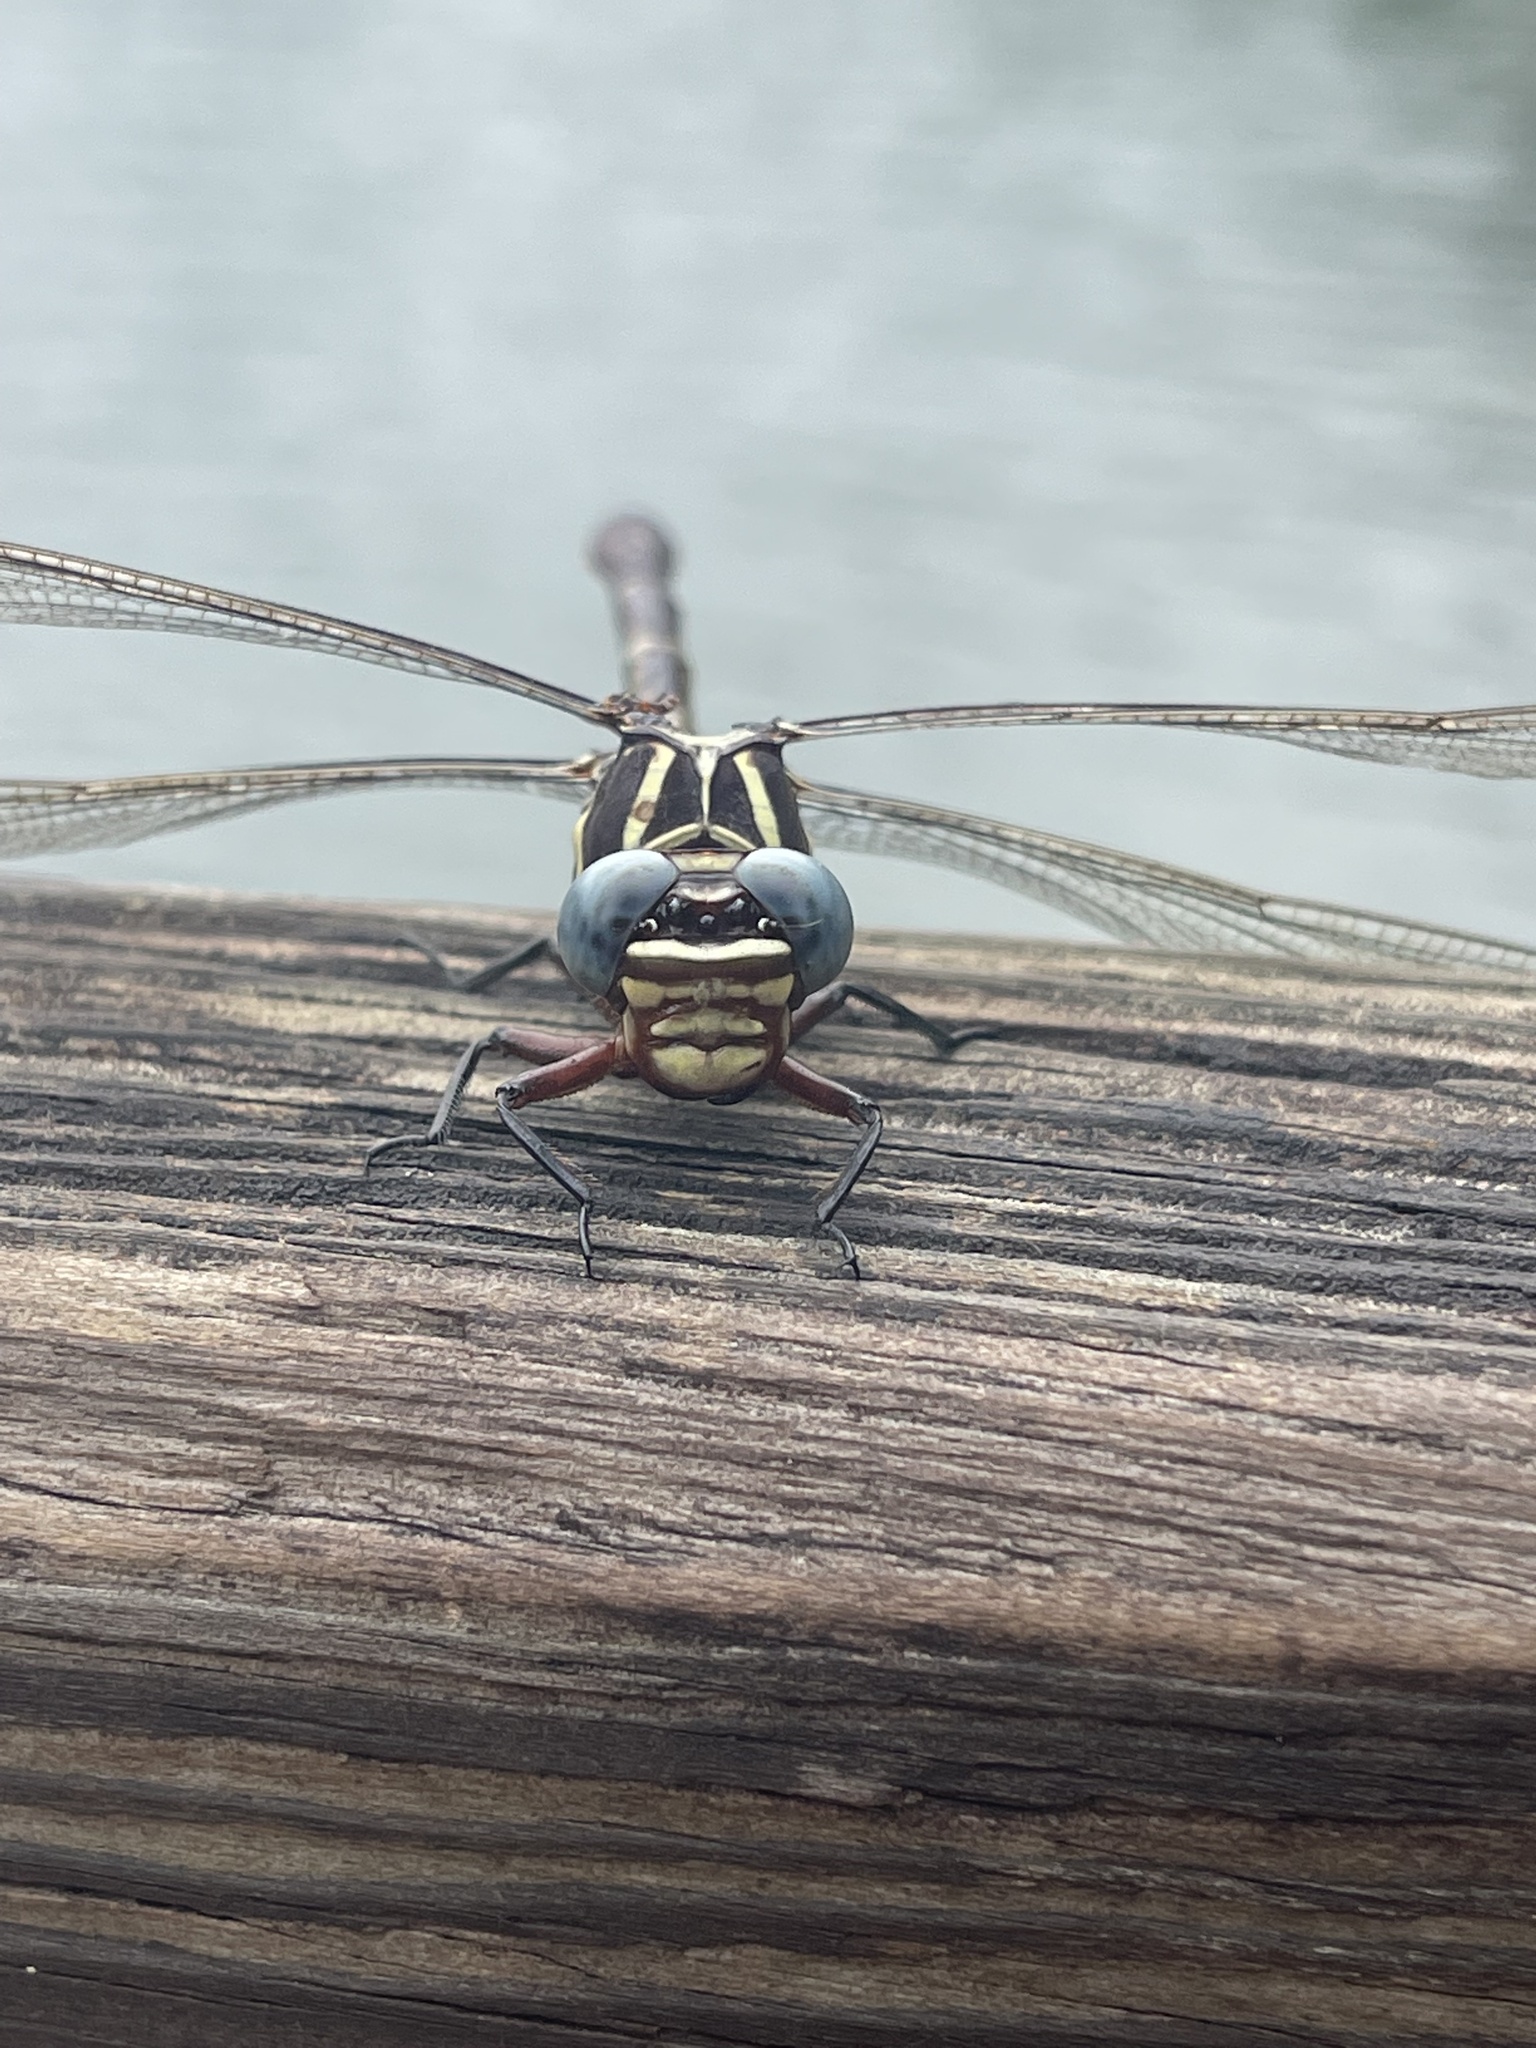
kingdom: Animalia
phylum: Arthropoda
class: Insecta
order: Odonata
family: Gomphidae
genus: Aphylla
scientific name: Aphylla williamsoni
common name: Two-striped forceptail
